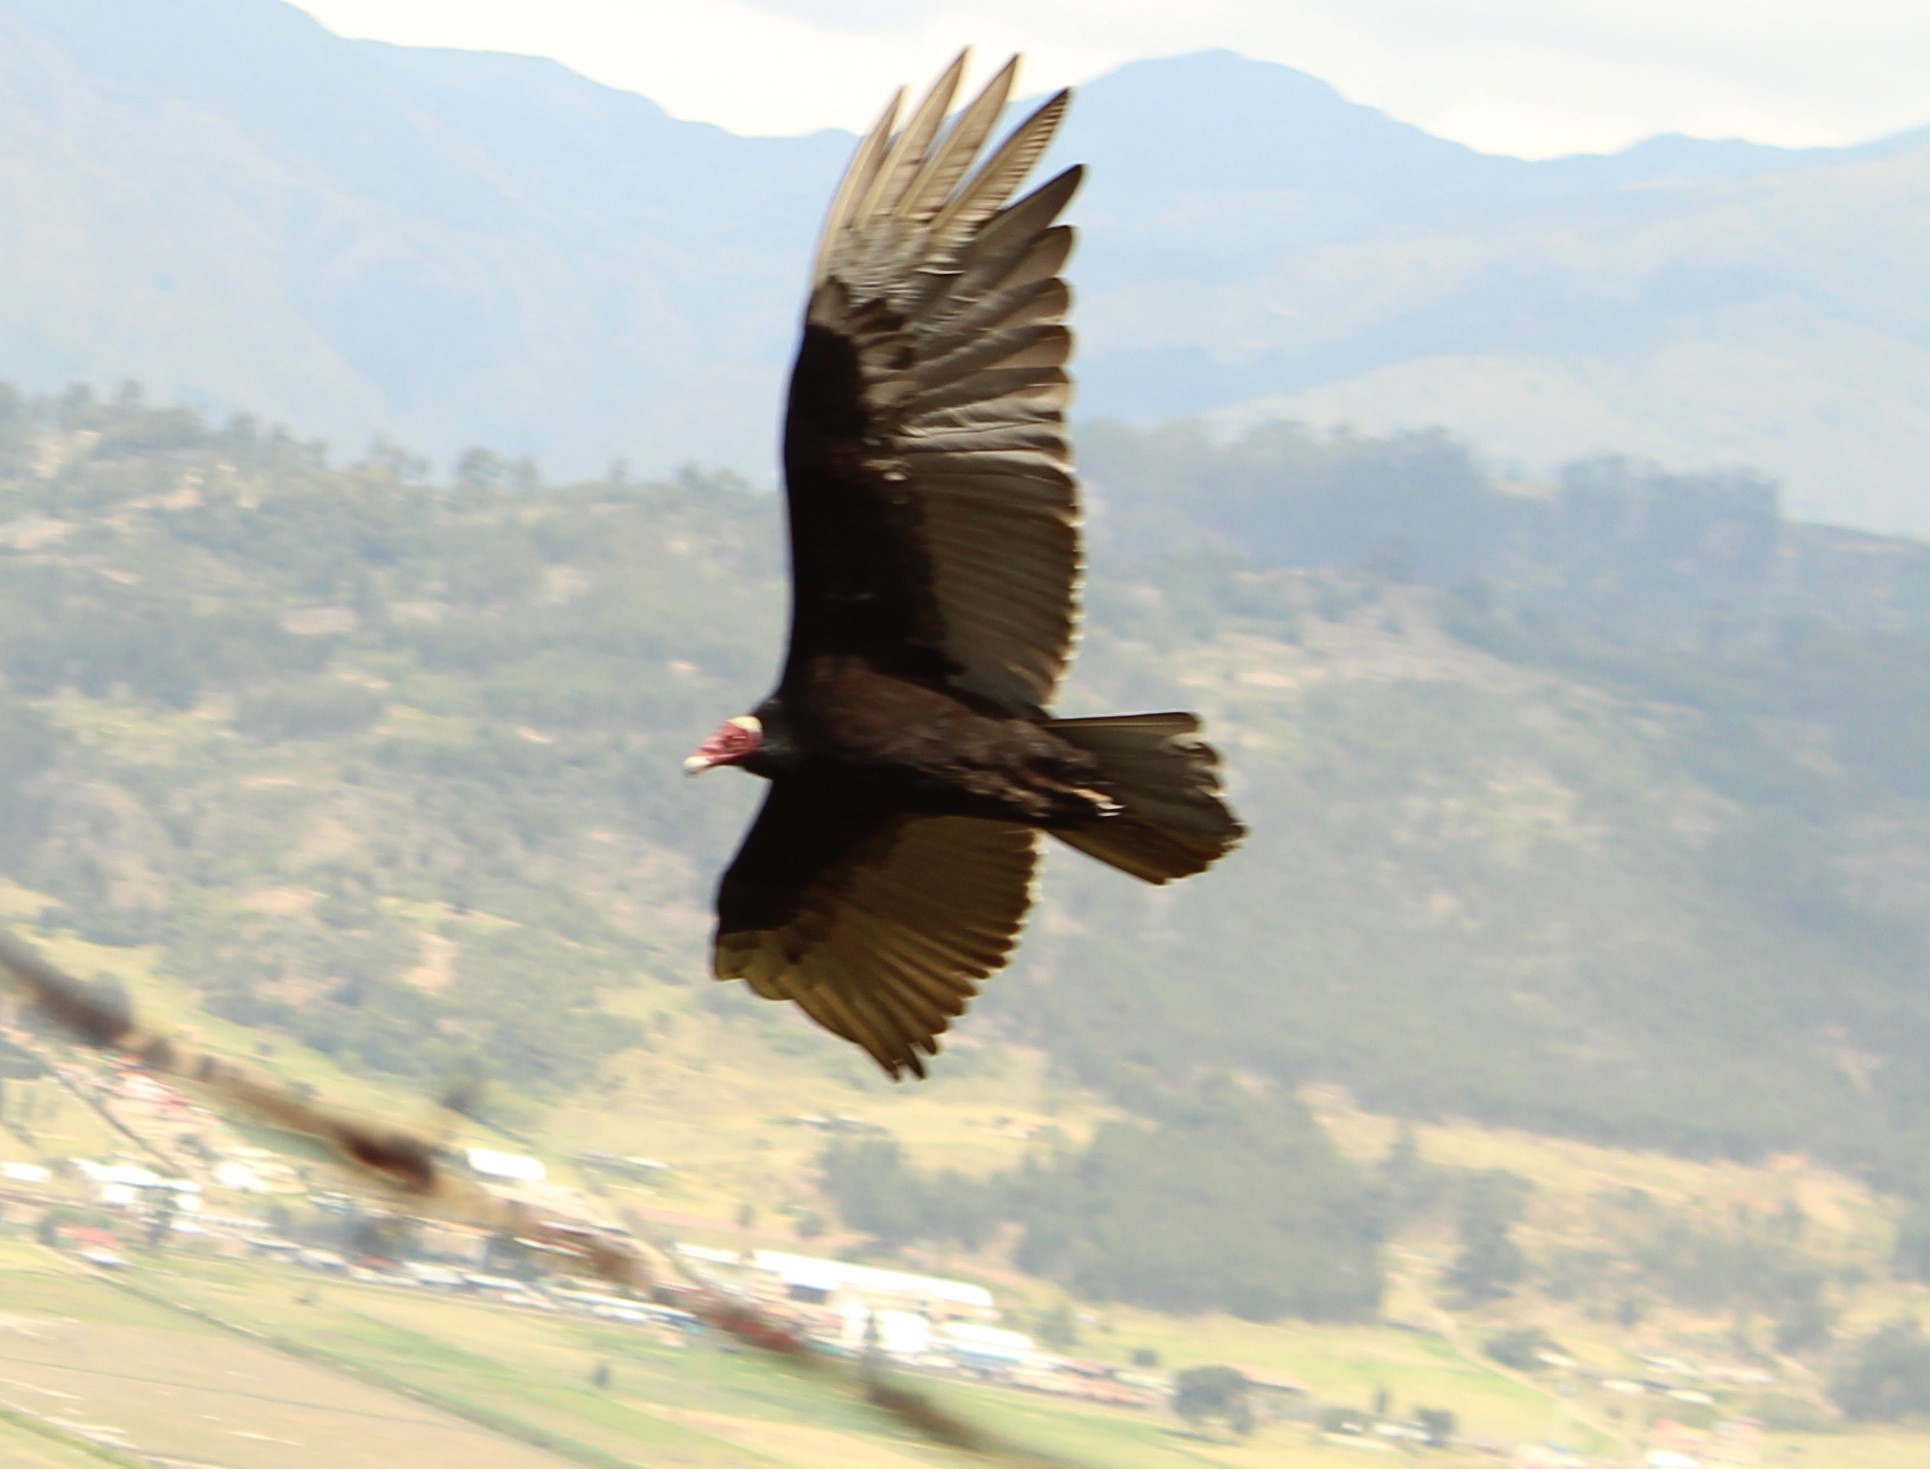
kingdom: Animalia
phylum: Chordata
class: Aves
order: Accipitriformes
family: Cathartidae
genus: Cathartes
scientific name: Cathartes aura
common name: Turkey vulture
